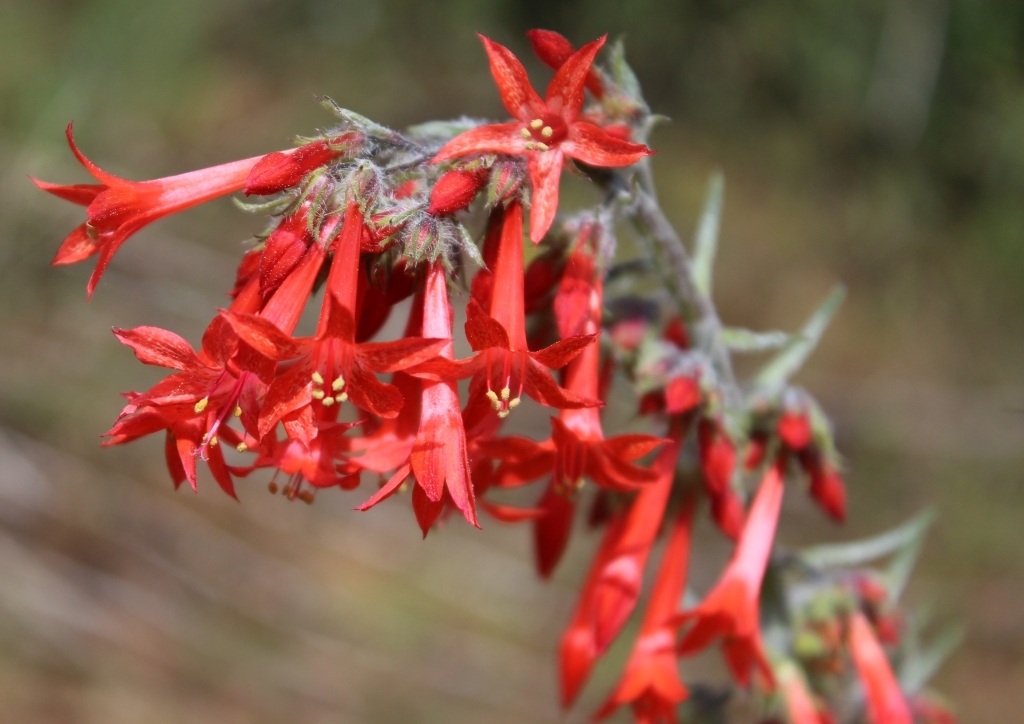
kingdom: Plantae
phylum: Tracheophyta
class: Magnoliopsida
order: Ericales
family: Polemoniaceae
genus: Ipomopsis
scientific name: Ipomopsis aggregata
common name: Scarlet gilia
